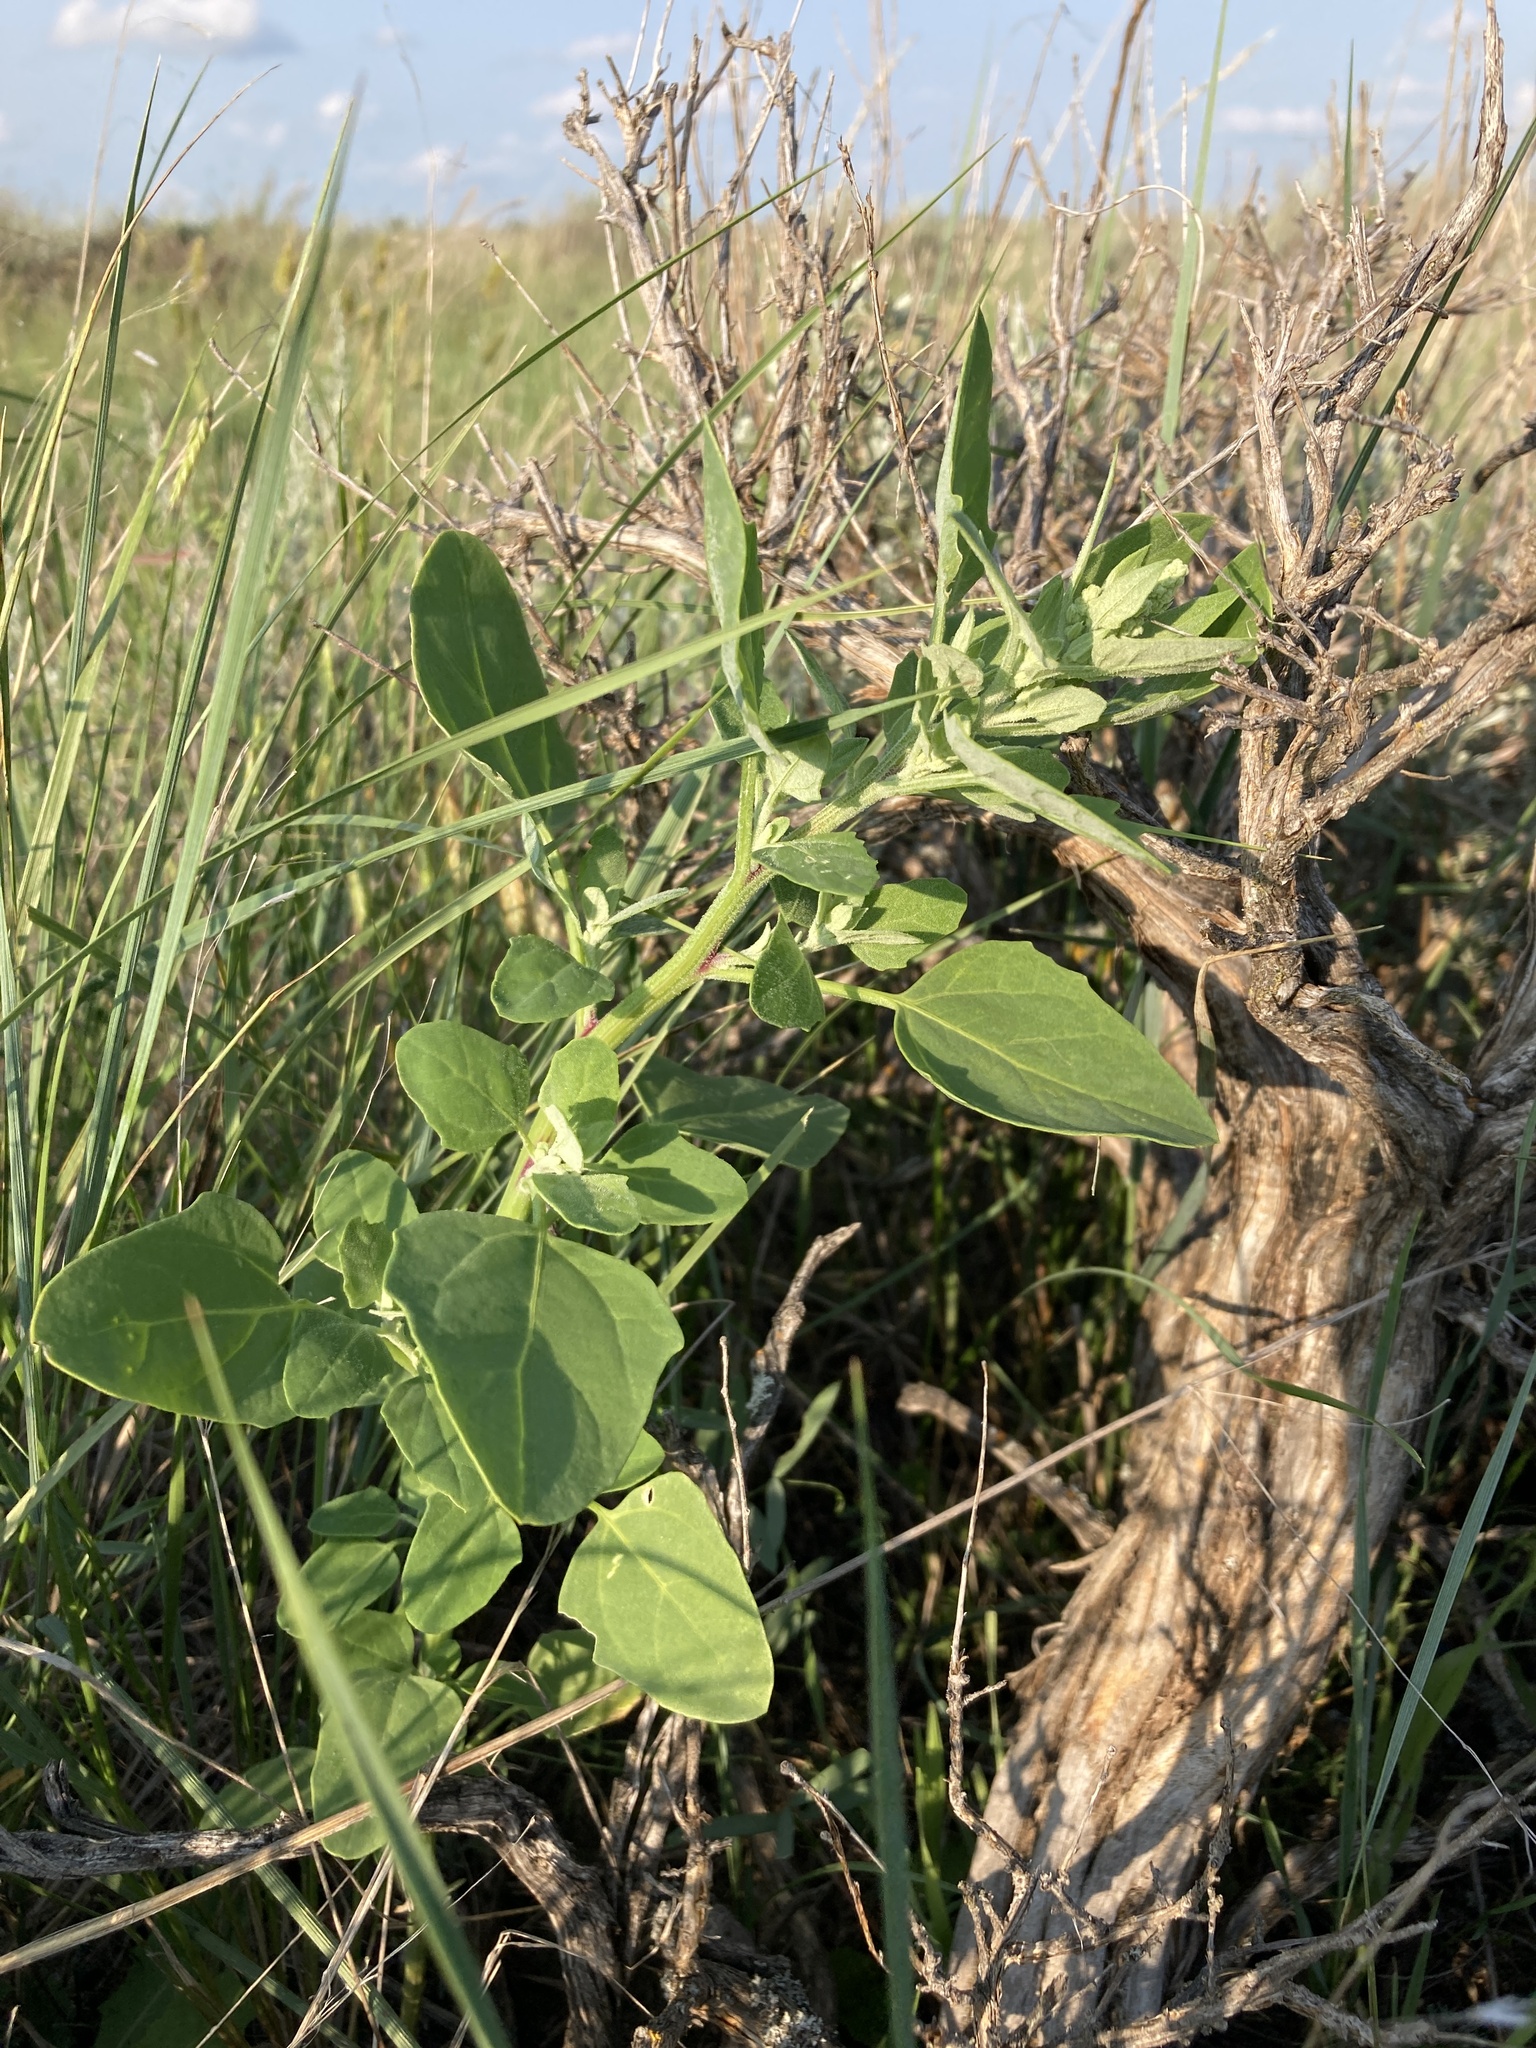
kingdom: Plantae
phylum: Tracheophyta
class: Magnoliopsida
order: Caryophyllales
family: Amaranthaceae
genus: Chenopodium
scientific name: Chenopodium album
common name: Fat-hen
